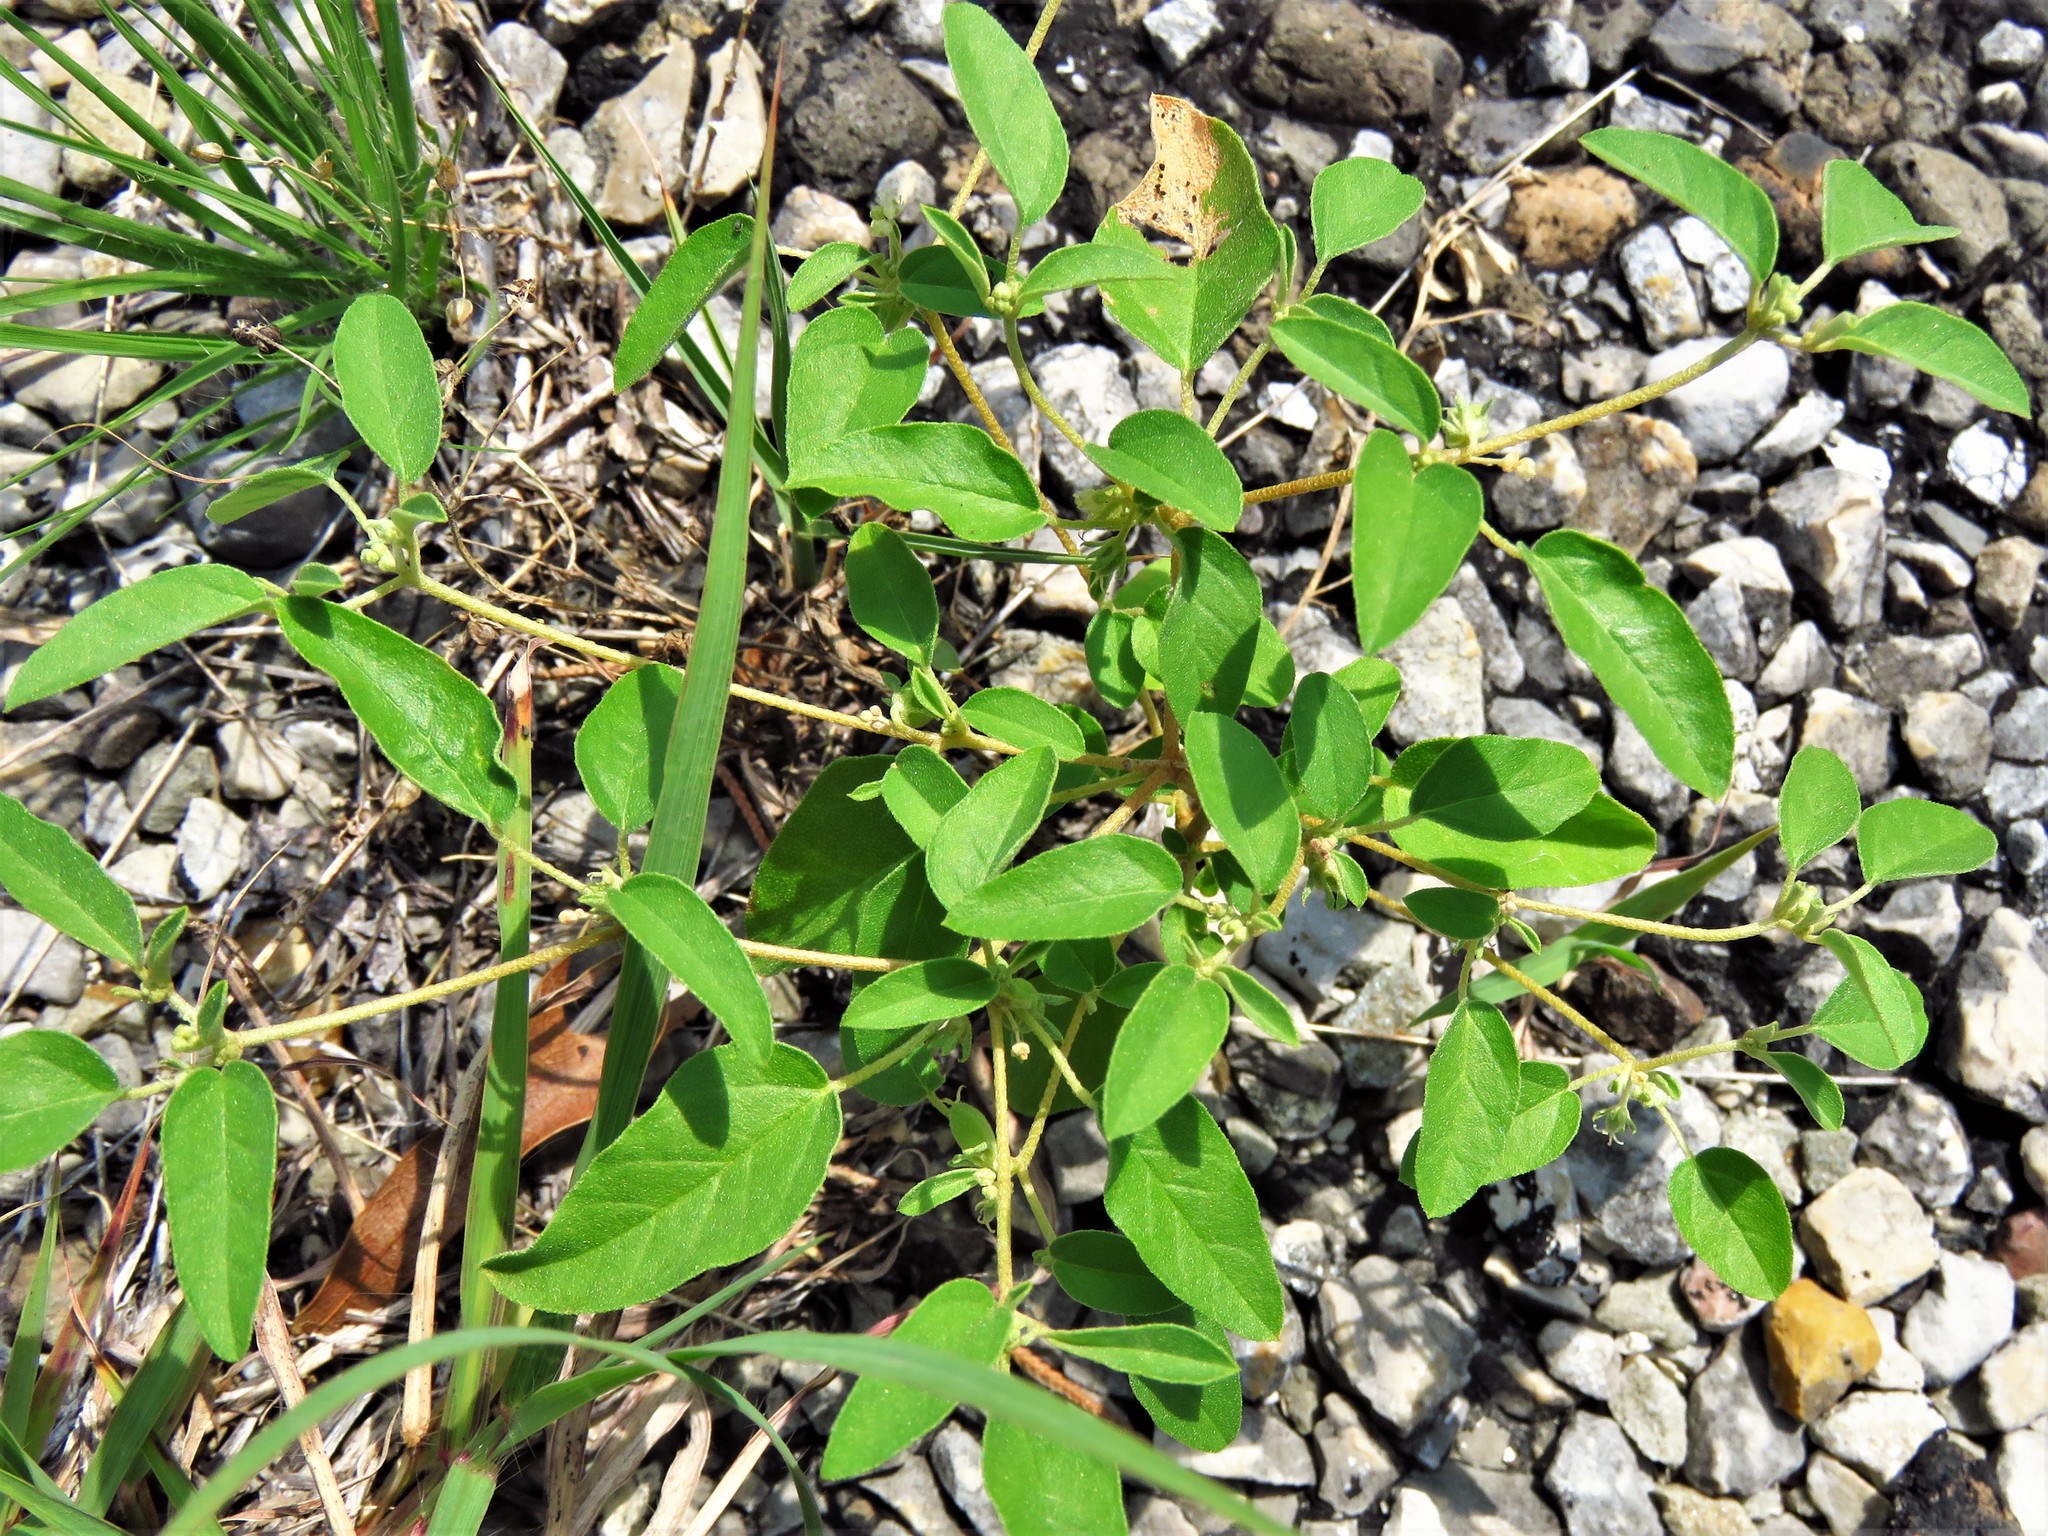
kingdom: Plantae
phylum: Tracheophyta
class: Magnoliopsida
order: Malpighiales
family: Euphorbiaceae
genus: Croton
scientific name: Croton monanthogynus
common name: One-seed croton
